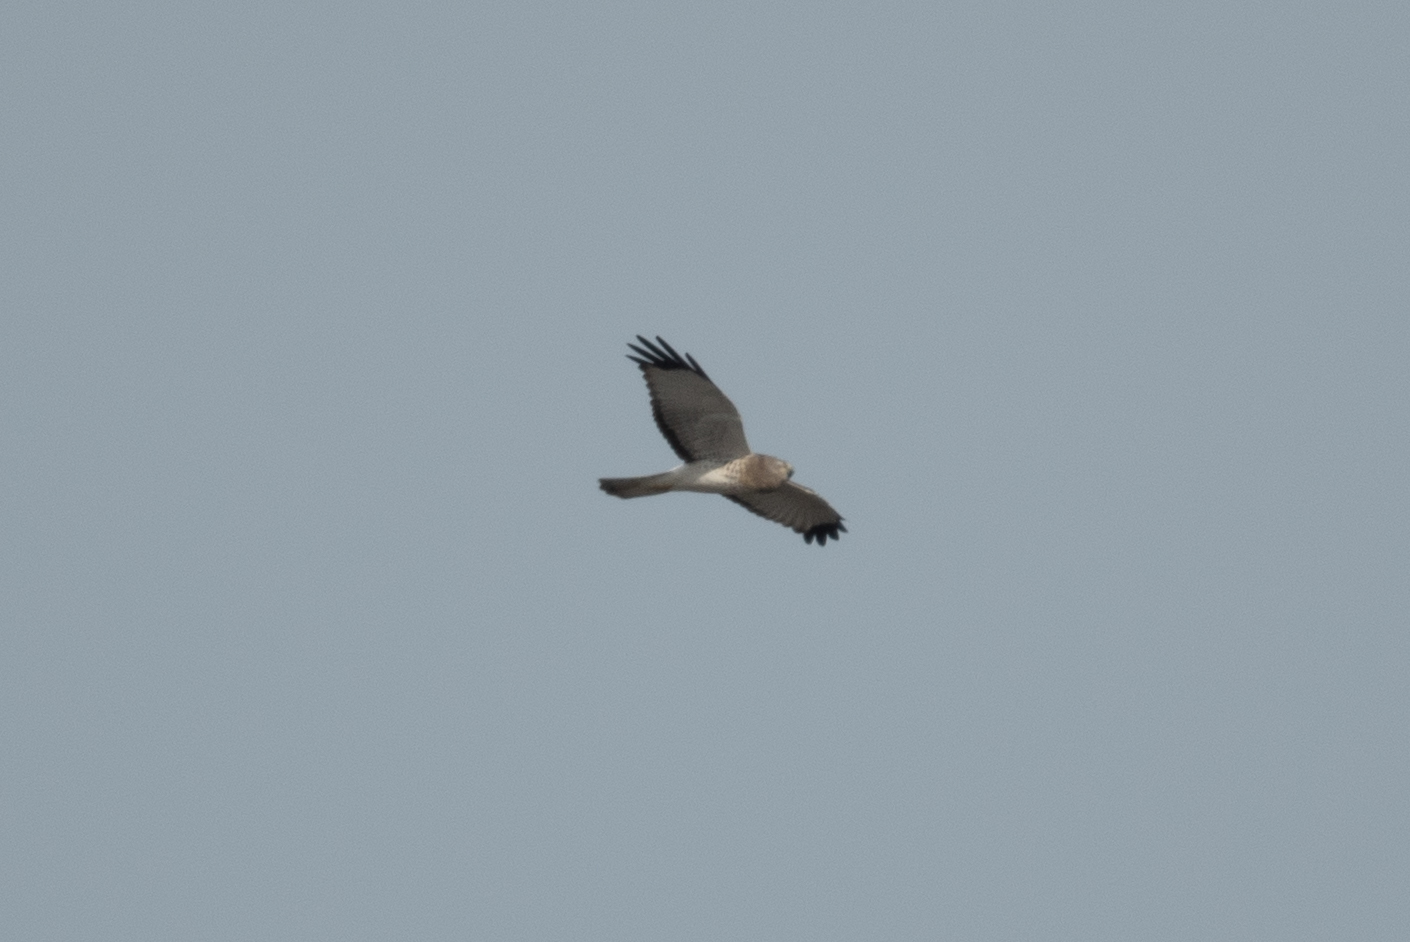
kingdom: Animalia
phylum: Chordata
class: Aves
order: Accipitriformes
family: Accipitridae
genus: Circus
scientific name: Circus cyaneus
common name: Hen harrier
